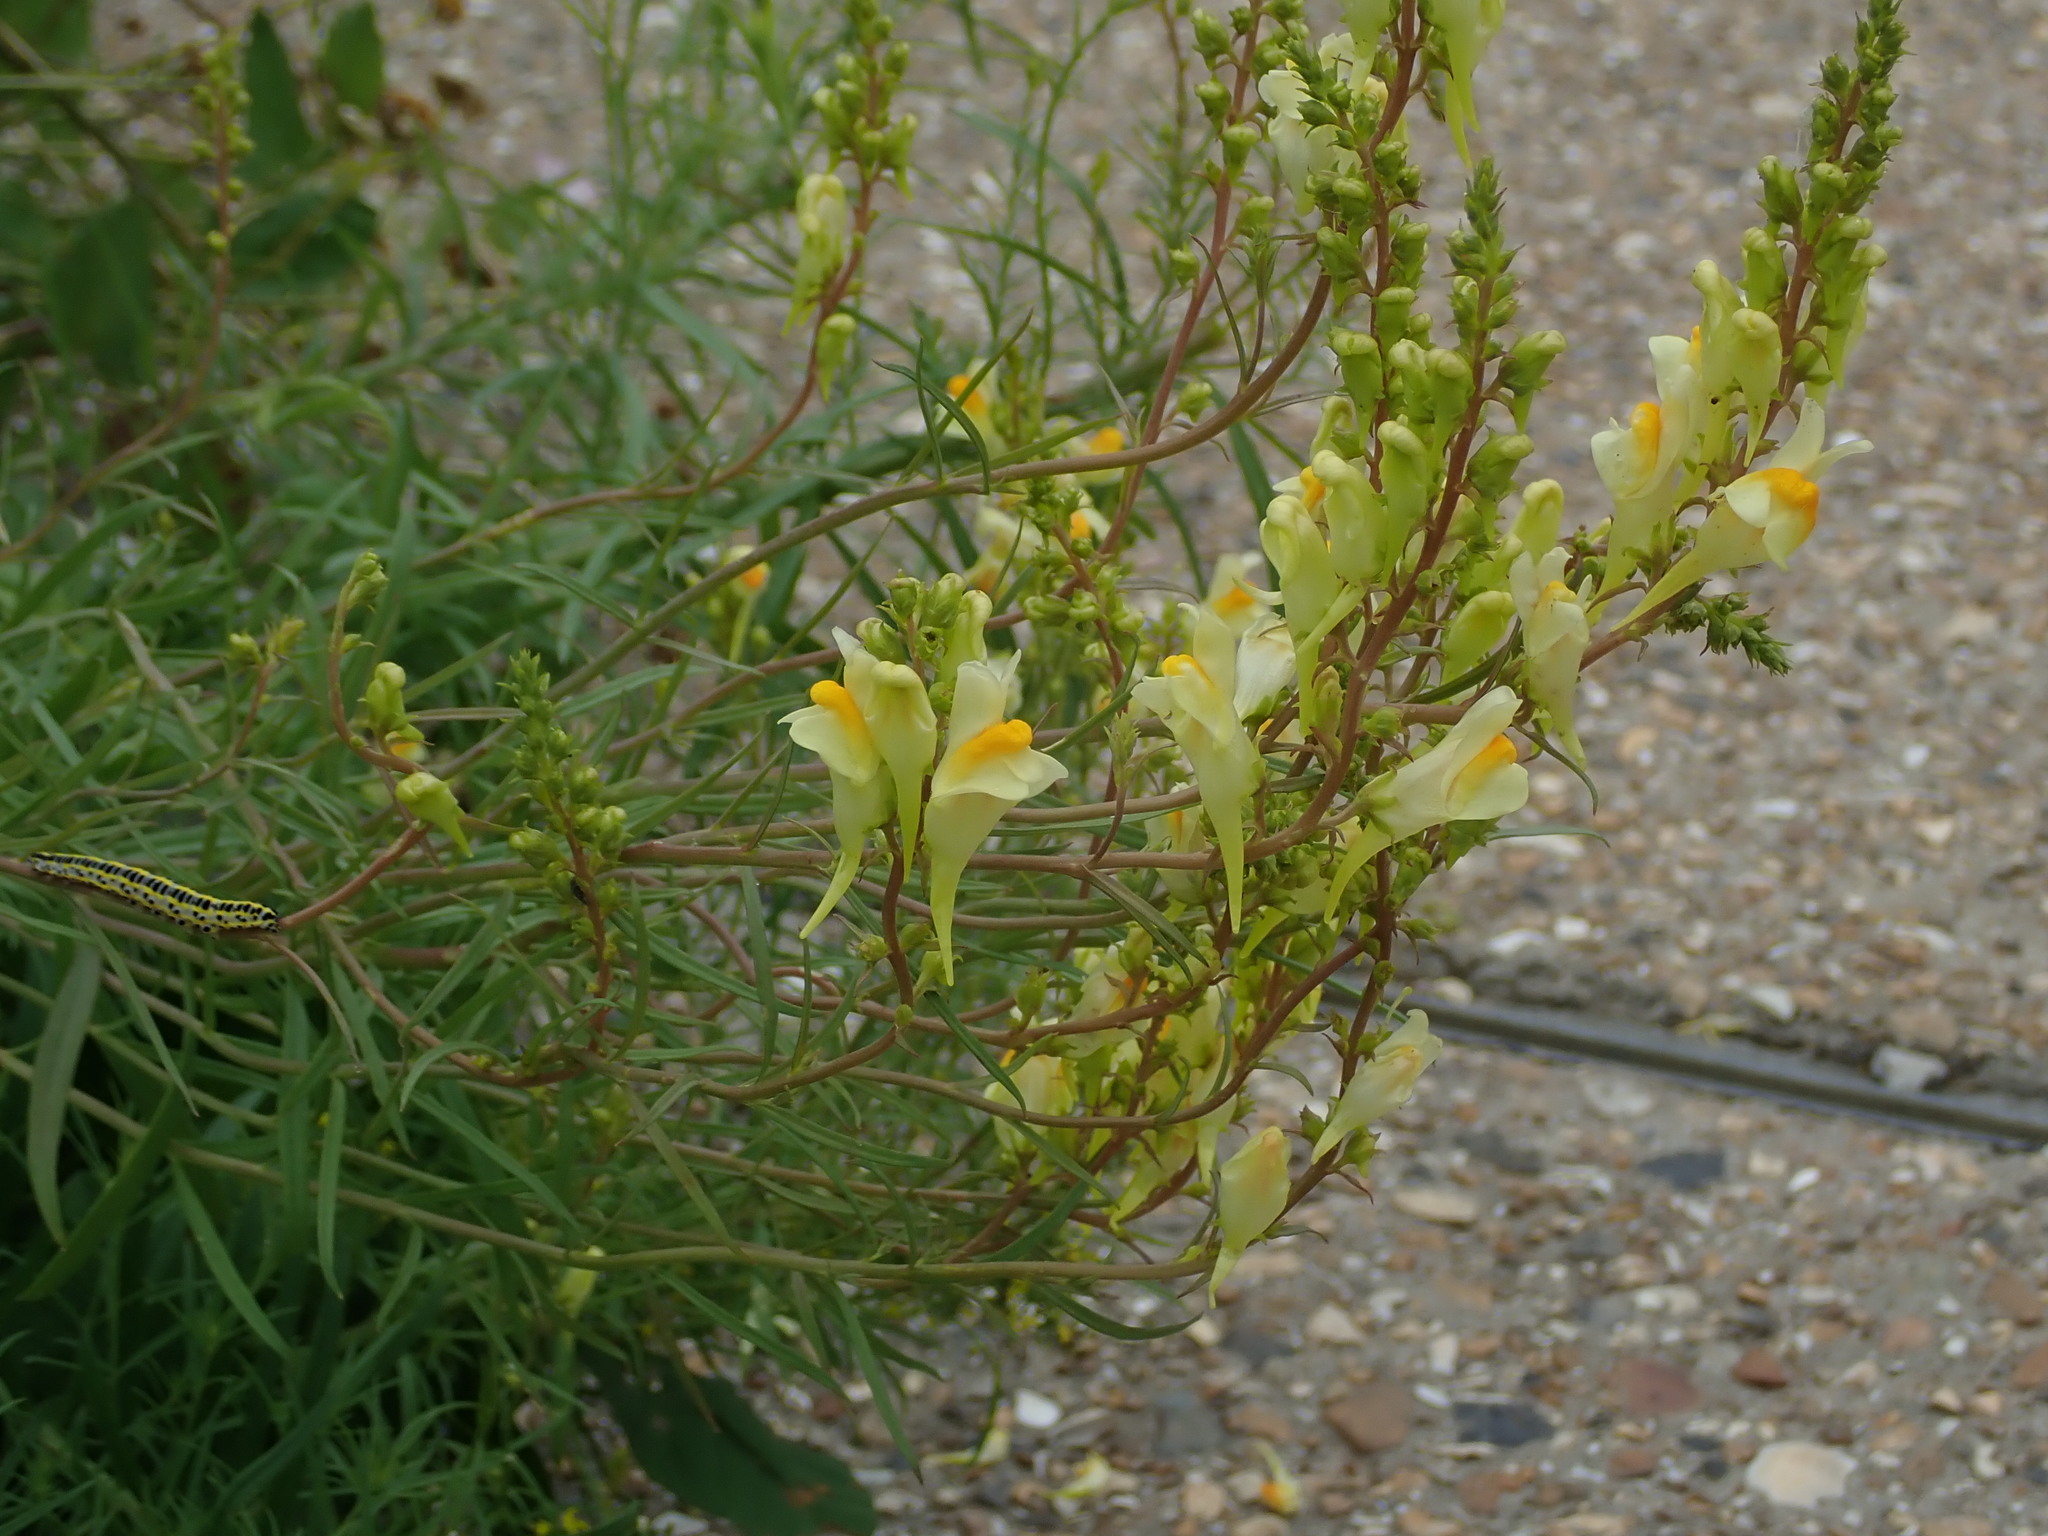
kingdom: Plantae
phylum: Tracheophyta
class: Magnoliopsida
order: Lamiales
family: Plantaginaceae
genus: Linaria
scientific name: Linaria vulgaris
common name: Butter and eggs
